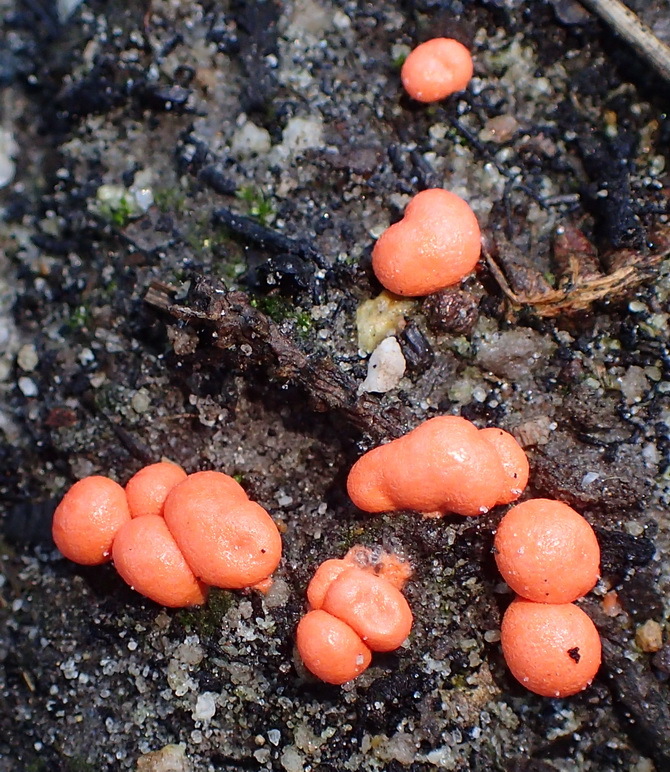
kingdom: Protozoa
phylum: Mycetozoa
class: Myxomycetes
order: Cribrariales
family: Tubiferaceae
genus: Lycogala
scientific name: Lycogala epidendrum
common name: Wolf's milk
